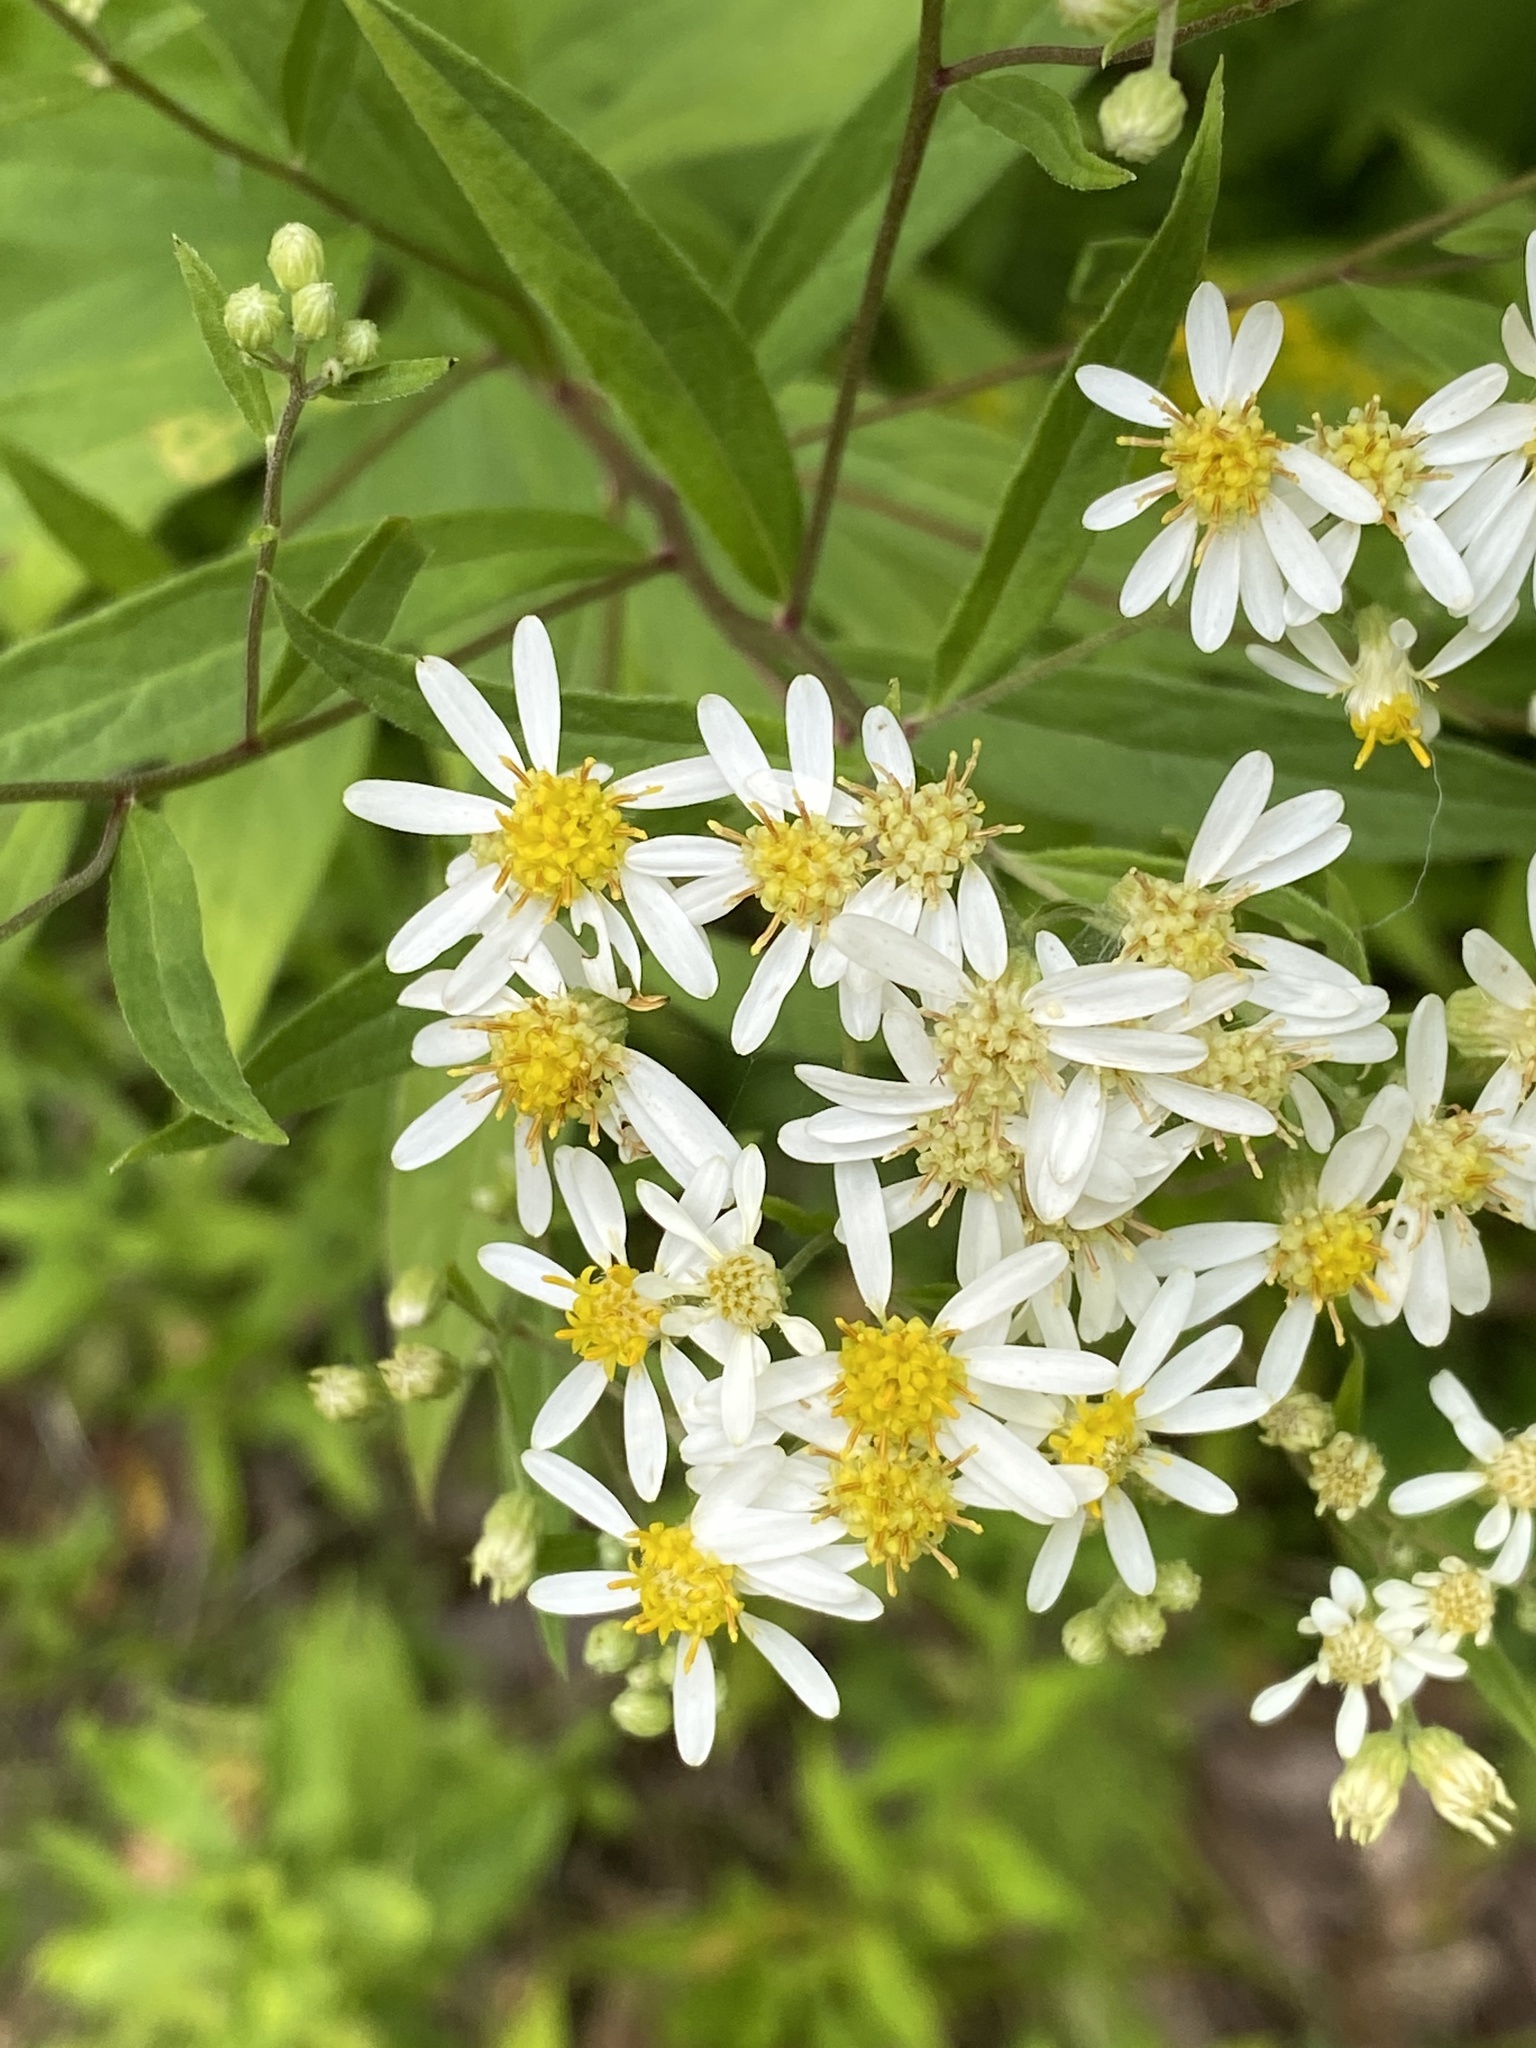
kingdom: Plantae
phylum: Tracheophyta
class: Magnoliopsida
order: Asterales
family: Asteraceae
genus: Doellingeria
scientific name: Doellingeria umbellata
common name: Flat-top white aster
